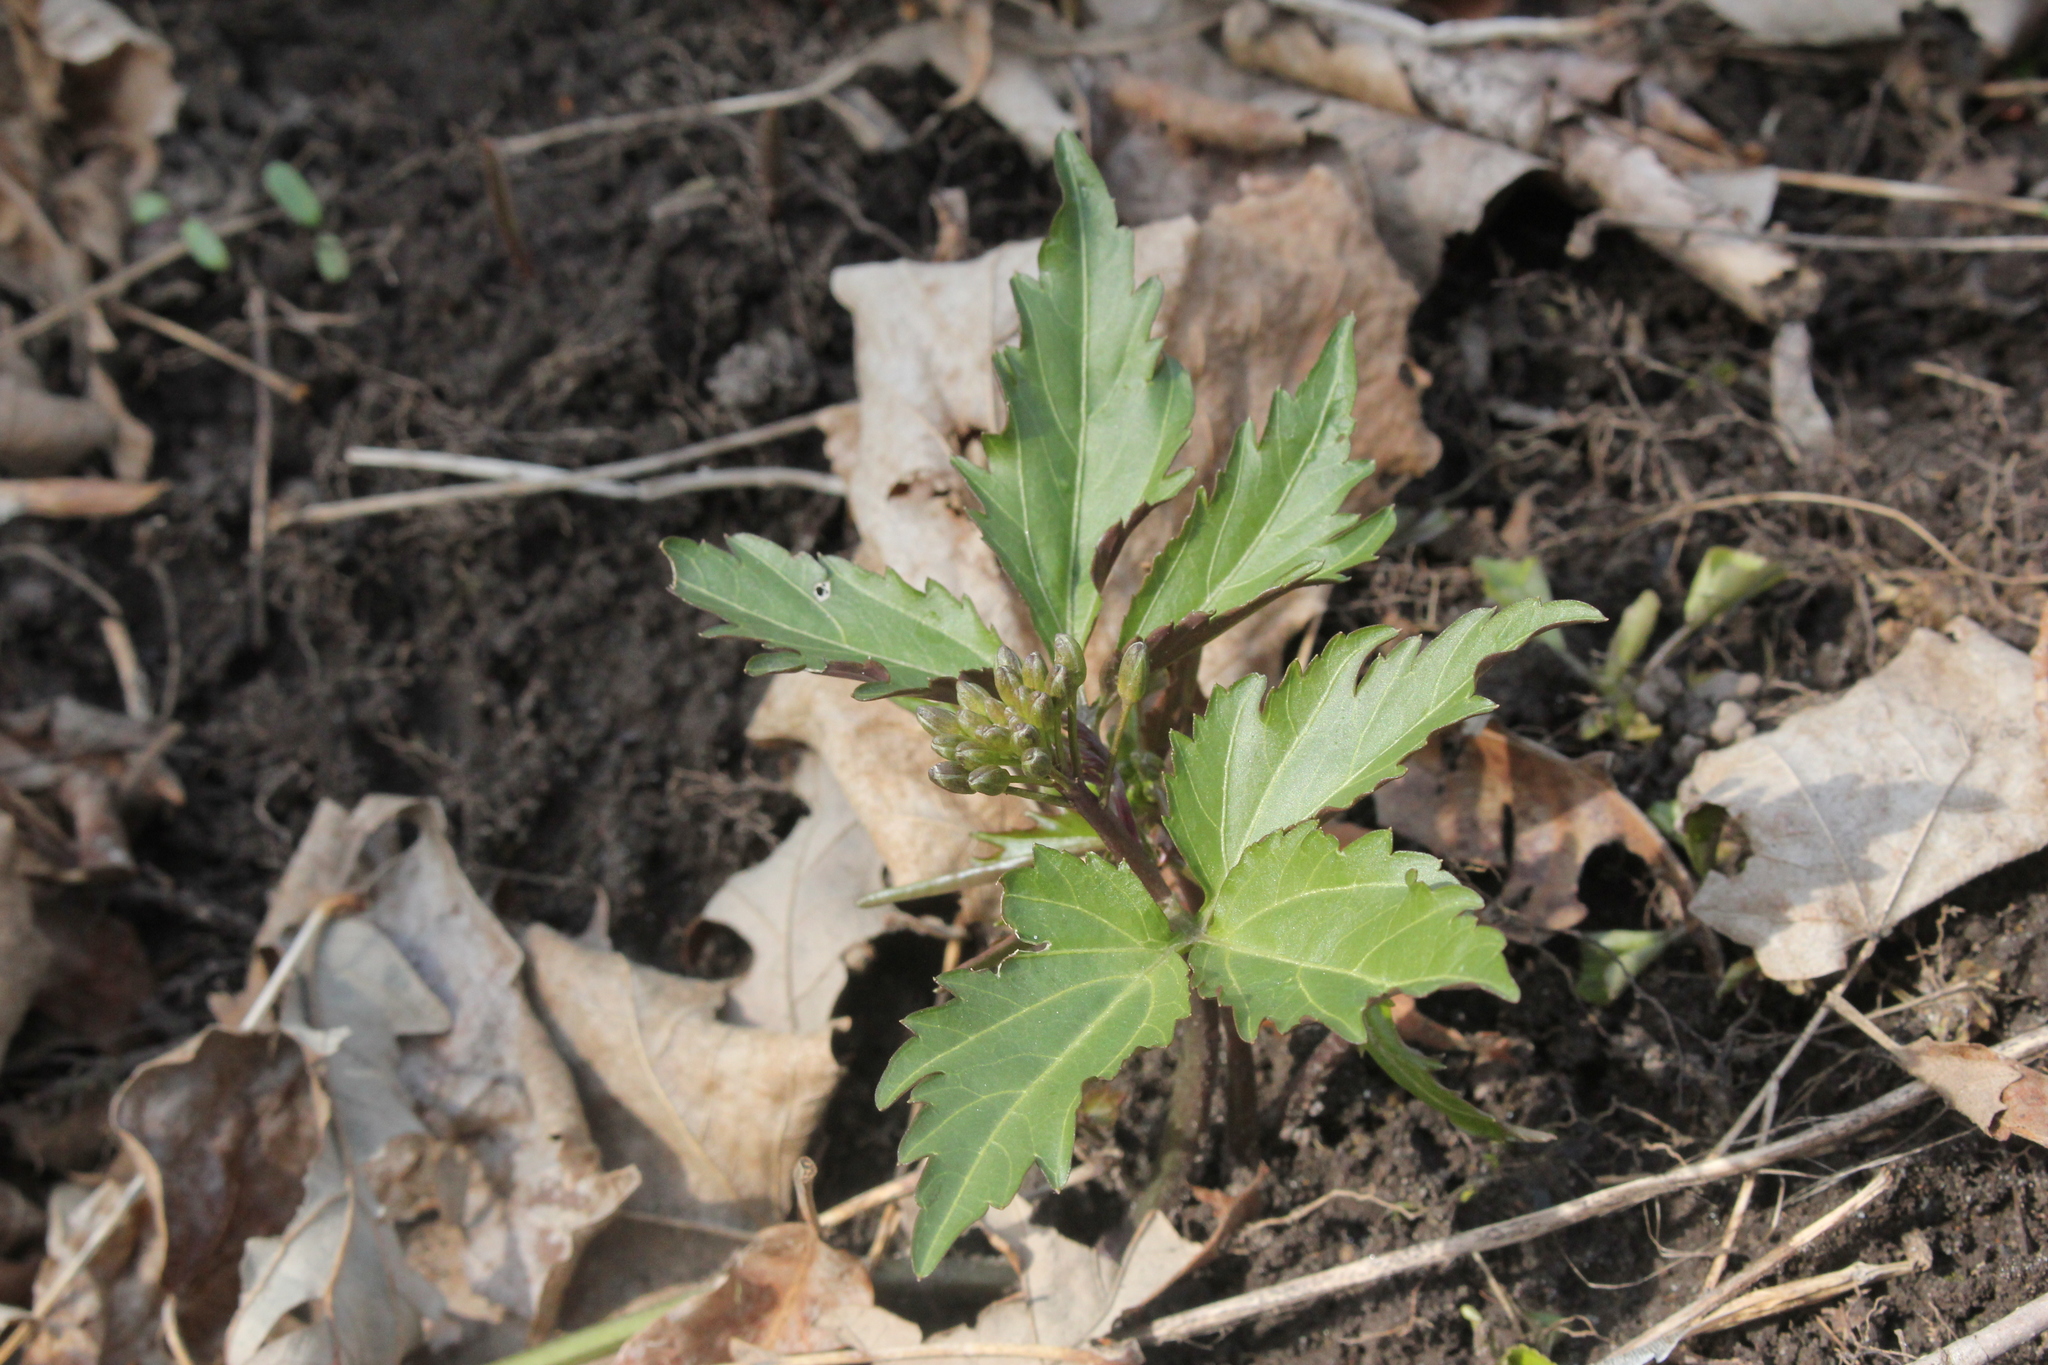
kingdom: Plantae
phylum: Tracheophyta
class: Magnoliopsida
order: Brassicales
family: Brassicaceae
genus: Cardamine
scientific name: Cardamine diphylla
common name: Broad-leaved toothwort
